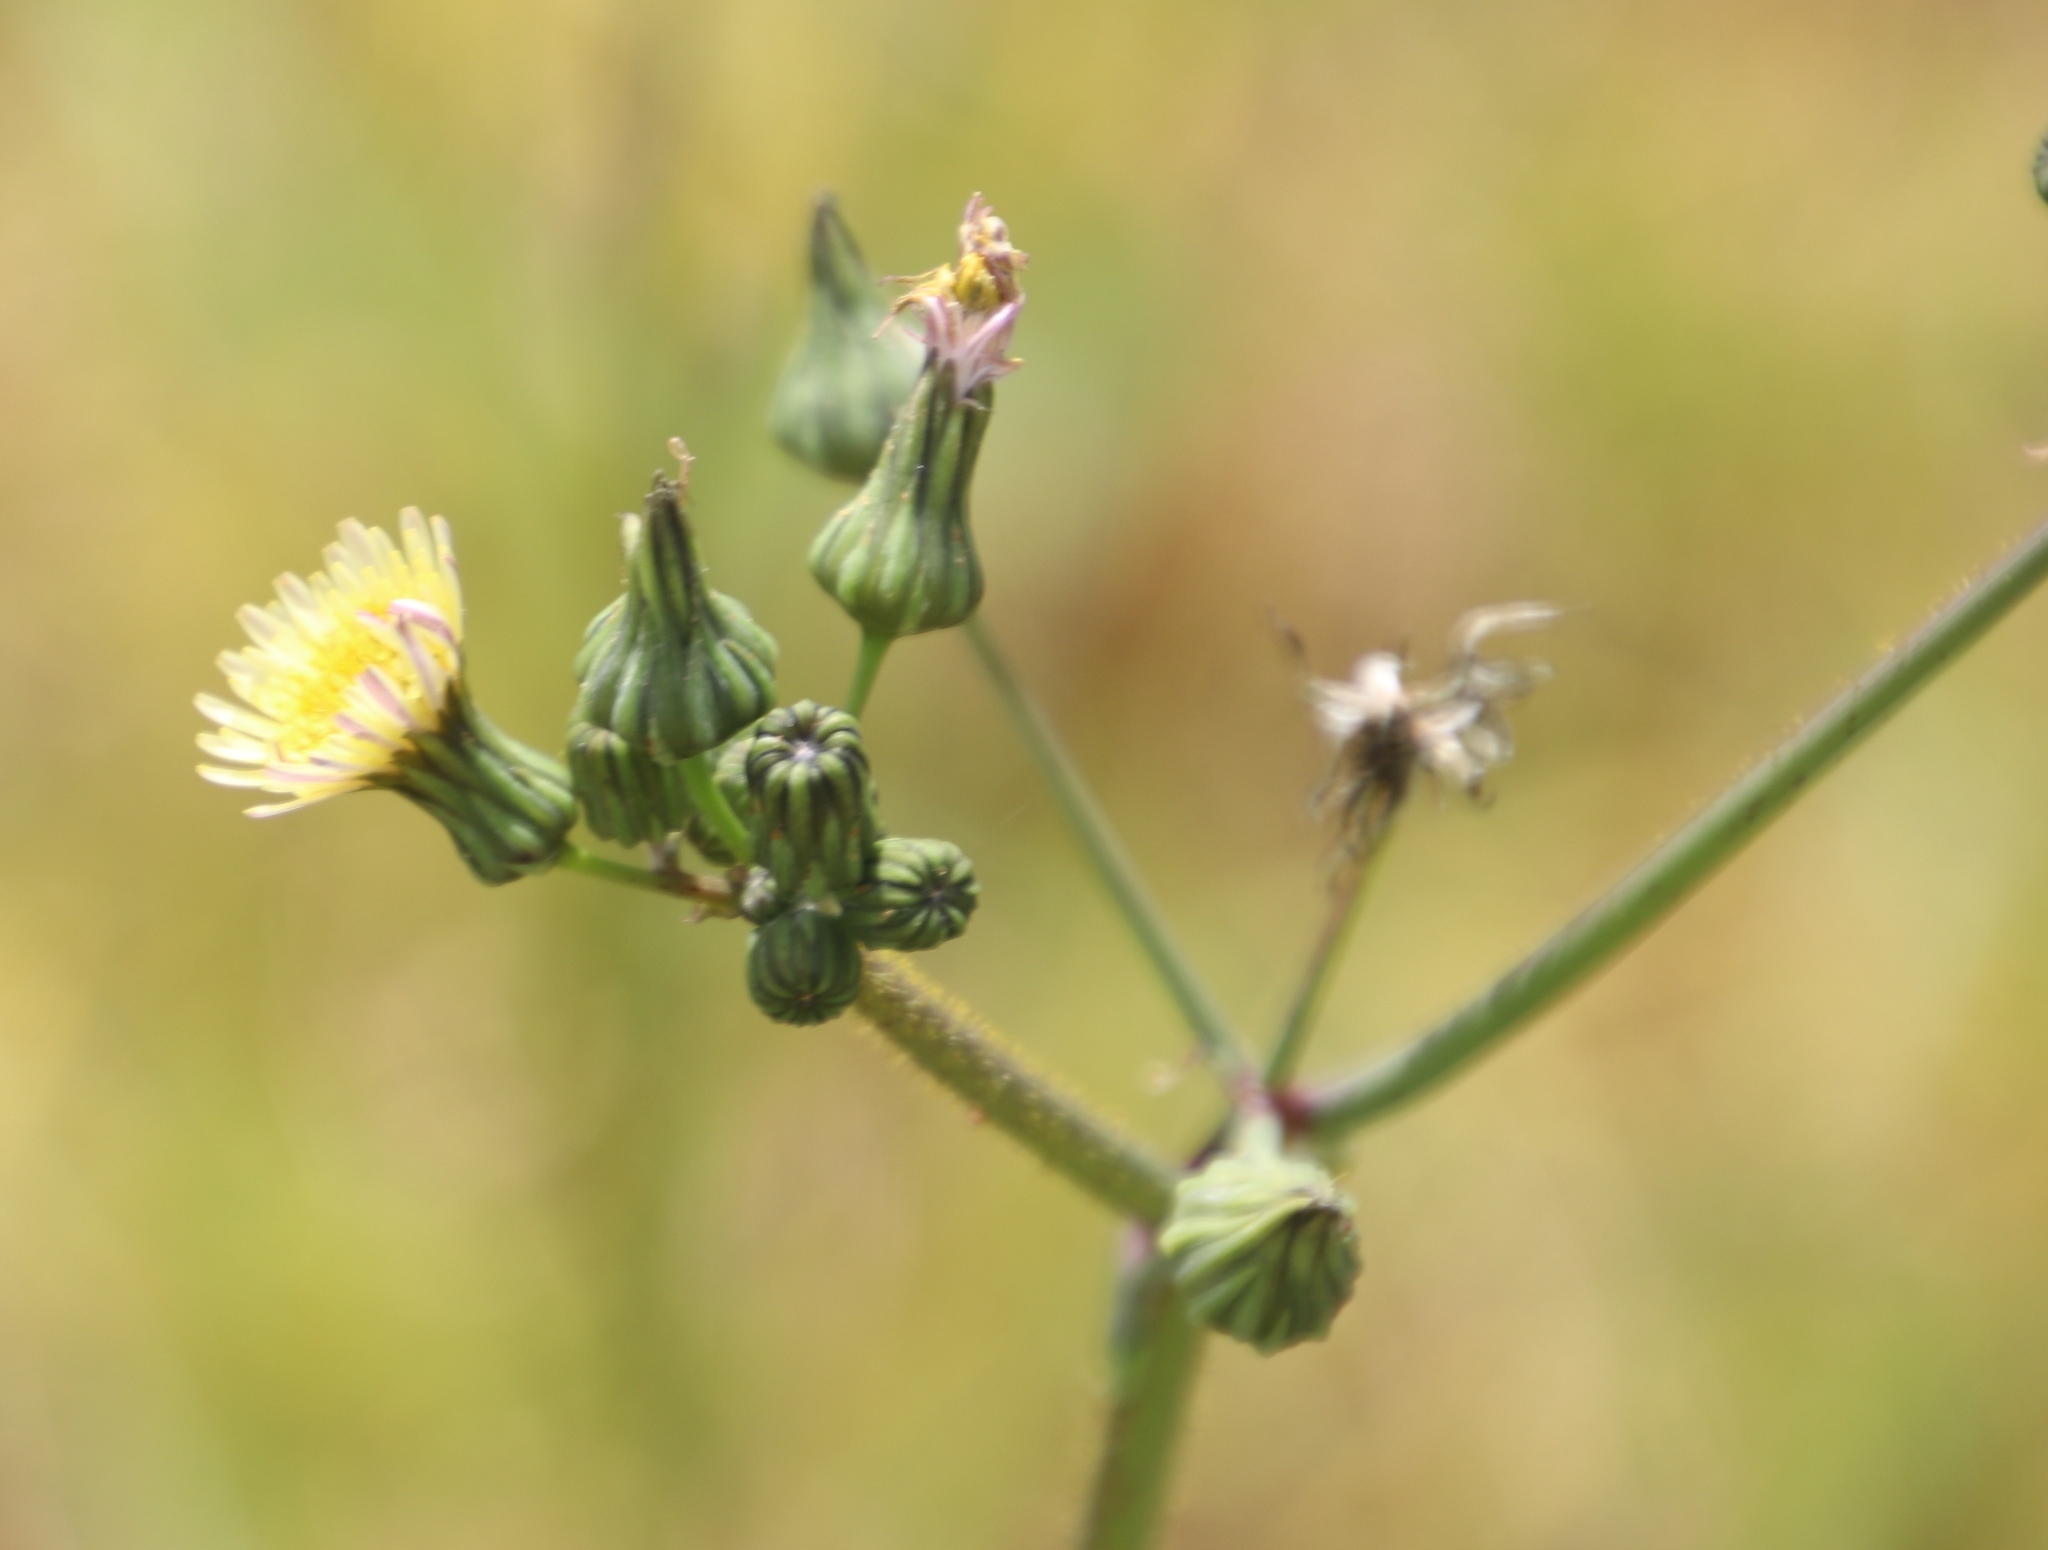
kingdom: Plantae
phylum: Tracheophyta
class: Magnoliopsida
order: Asterales
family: Asteraceae
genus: Sonchus
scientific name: Sonchus oleraceus
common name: Common sowthistle
